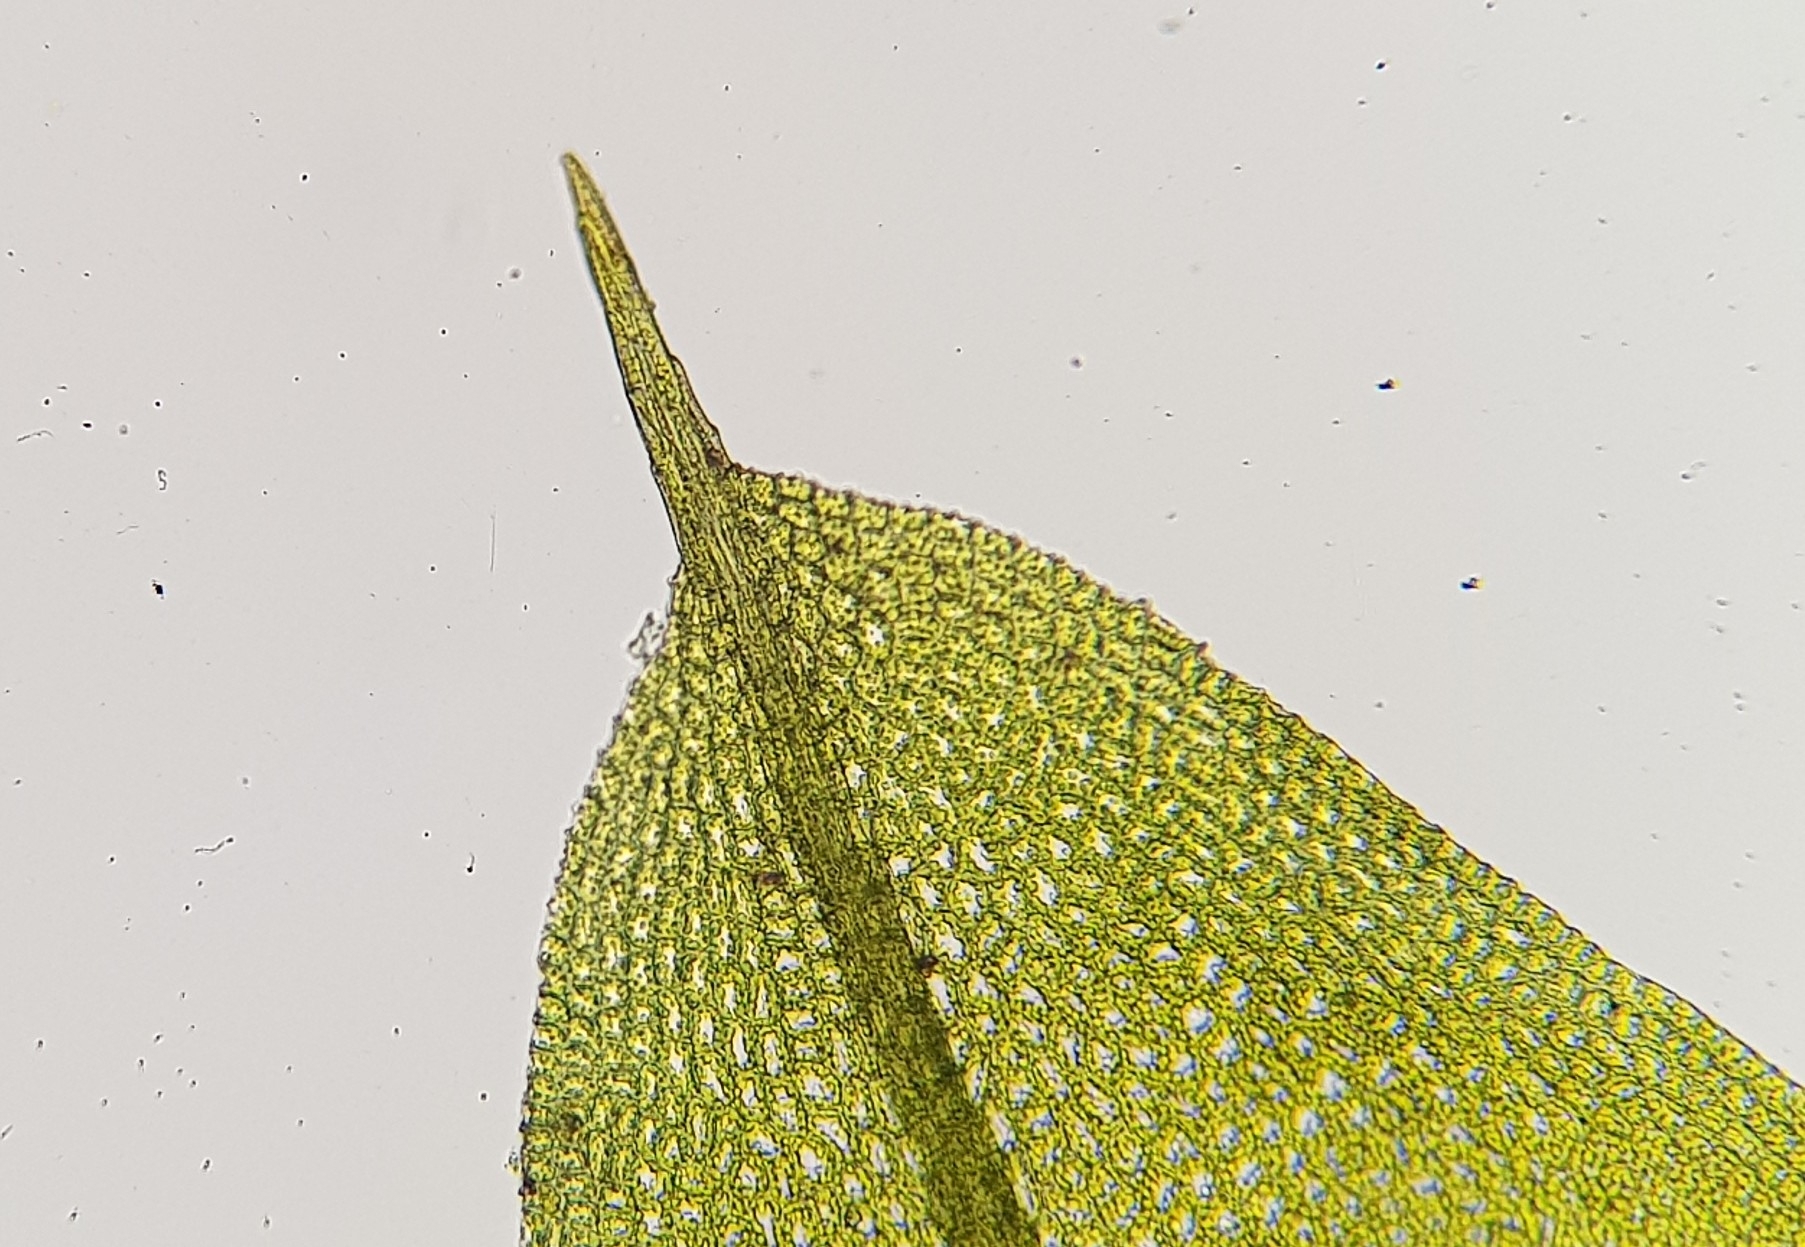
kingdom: Plantae
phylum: Bryophyta
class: Bryopsida
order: Pottiales
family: Pottiaceae
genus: Tortula
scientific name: Tortula caucasica
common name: Blunt-fruited pottia
